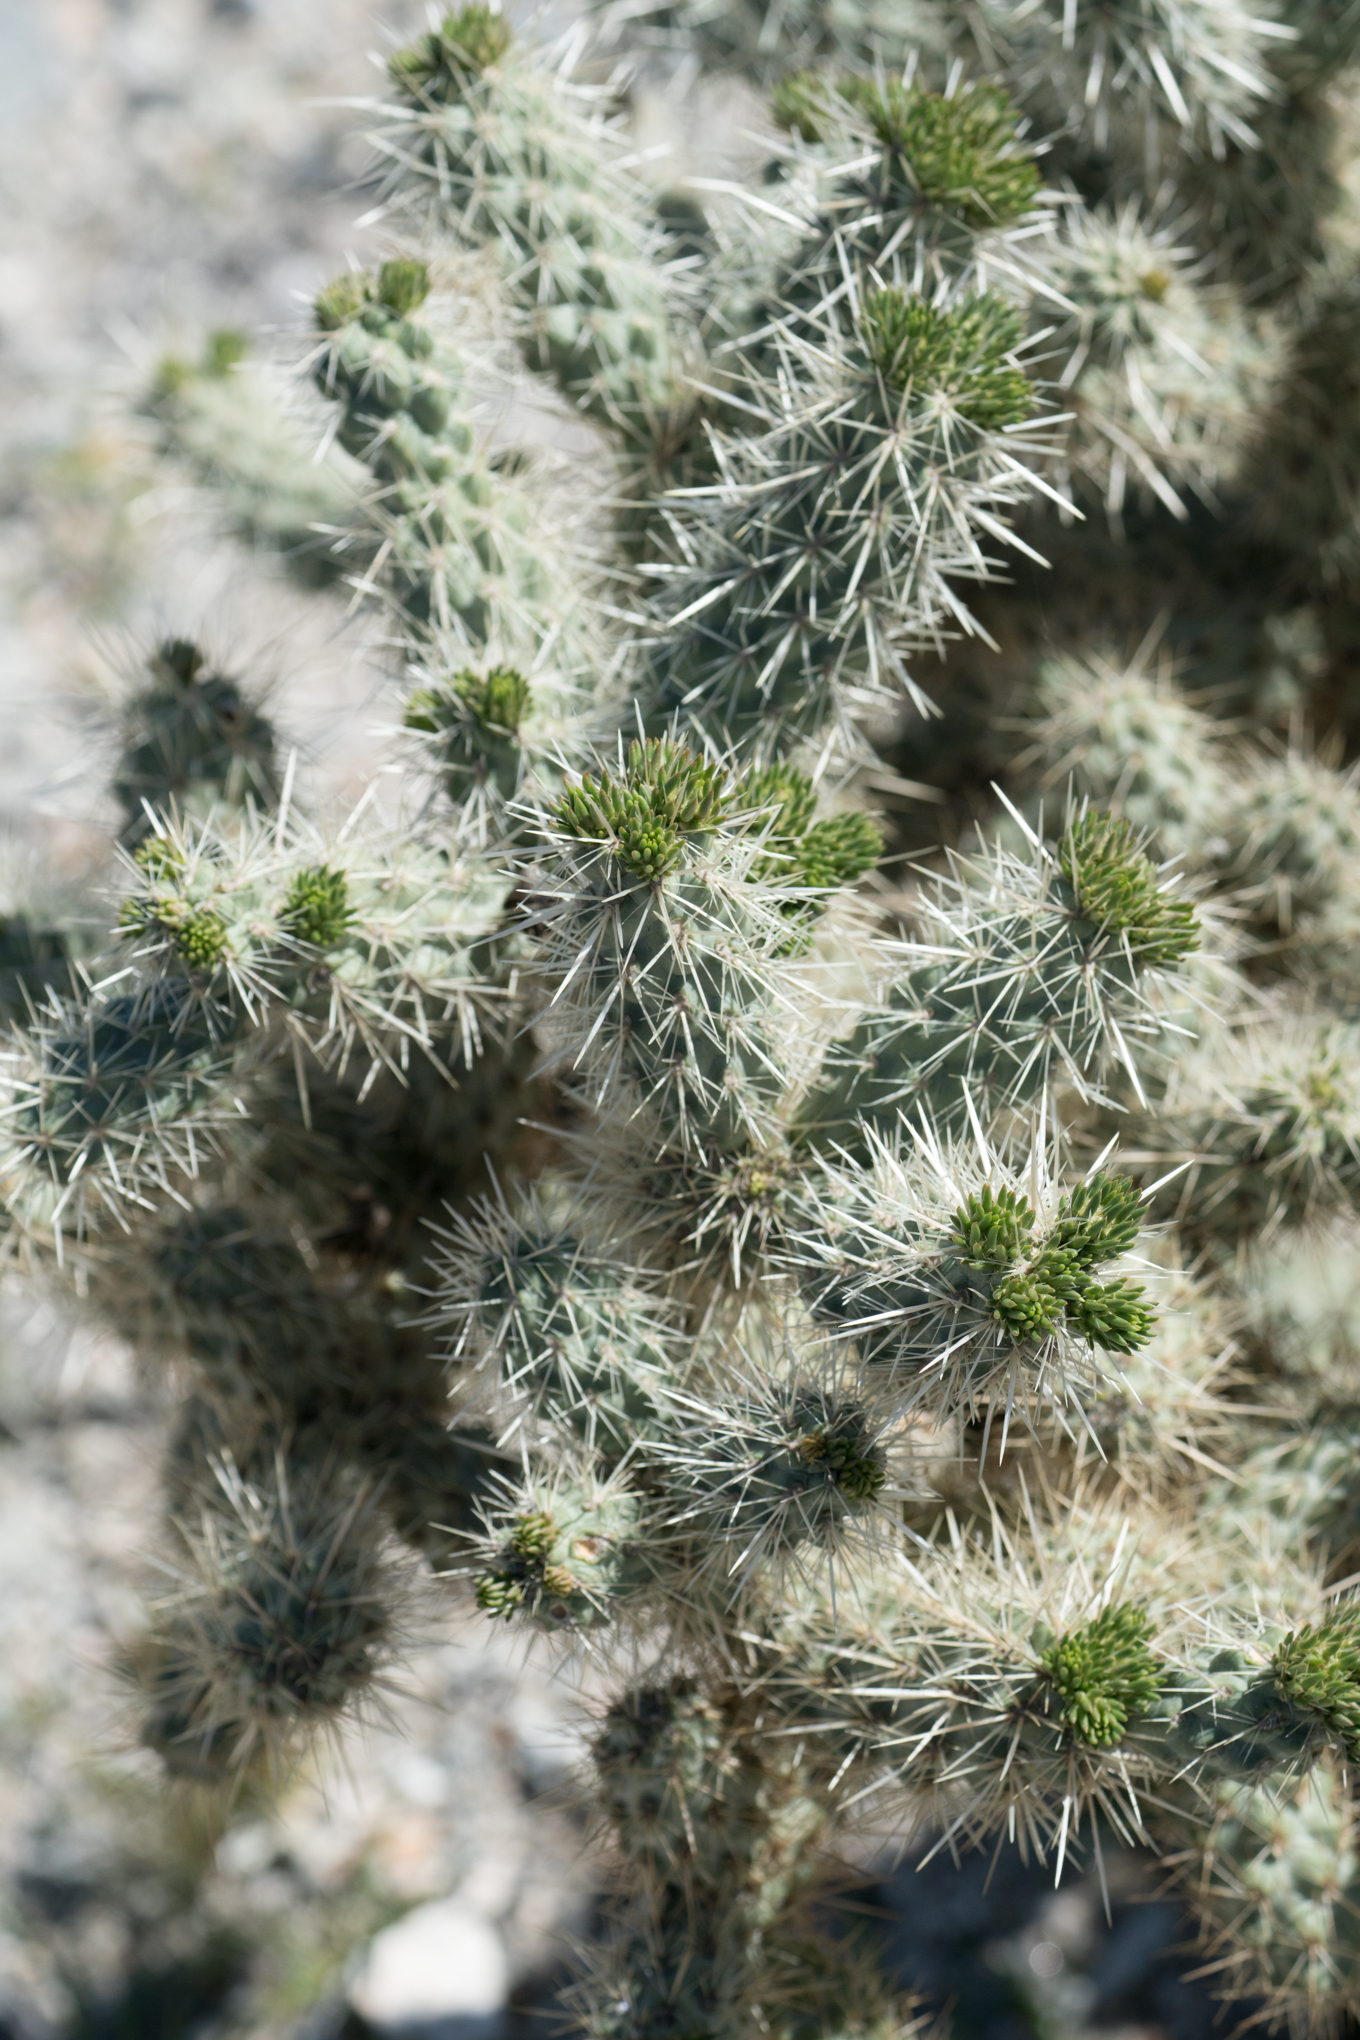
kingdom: Plantae
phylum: Tracheophyta
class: Magnoliopsida
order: Caryophyllales
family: Cactaceae
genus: Cylindropuntia
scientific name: Cylindropuntia echinocarpa
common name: Ground cholla
